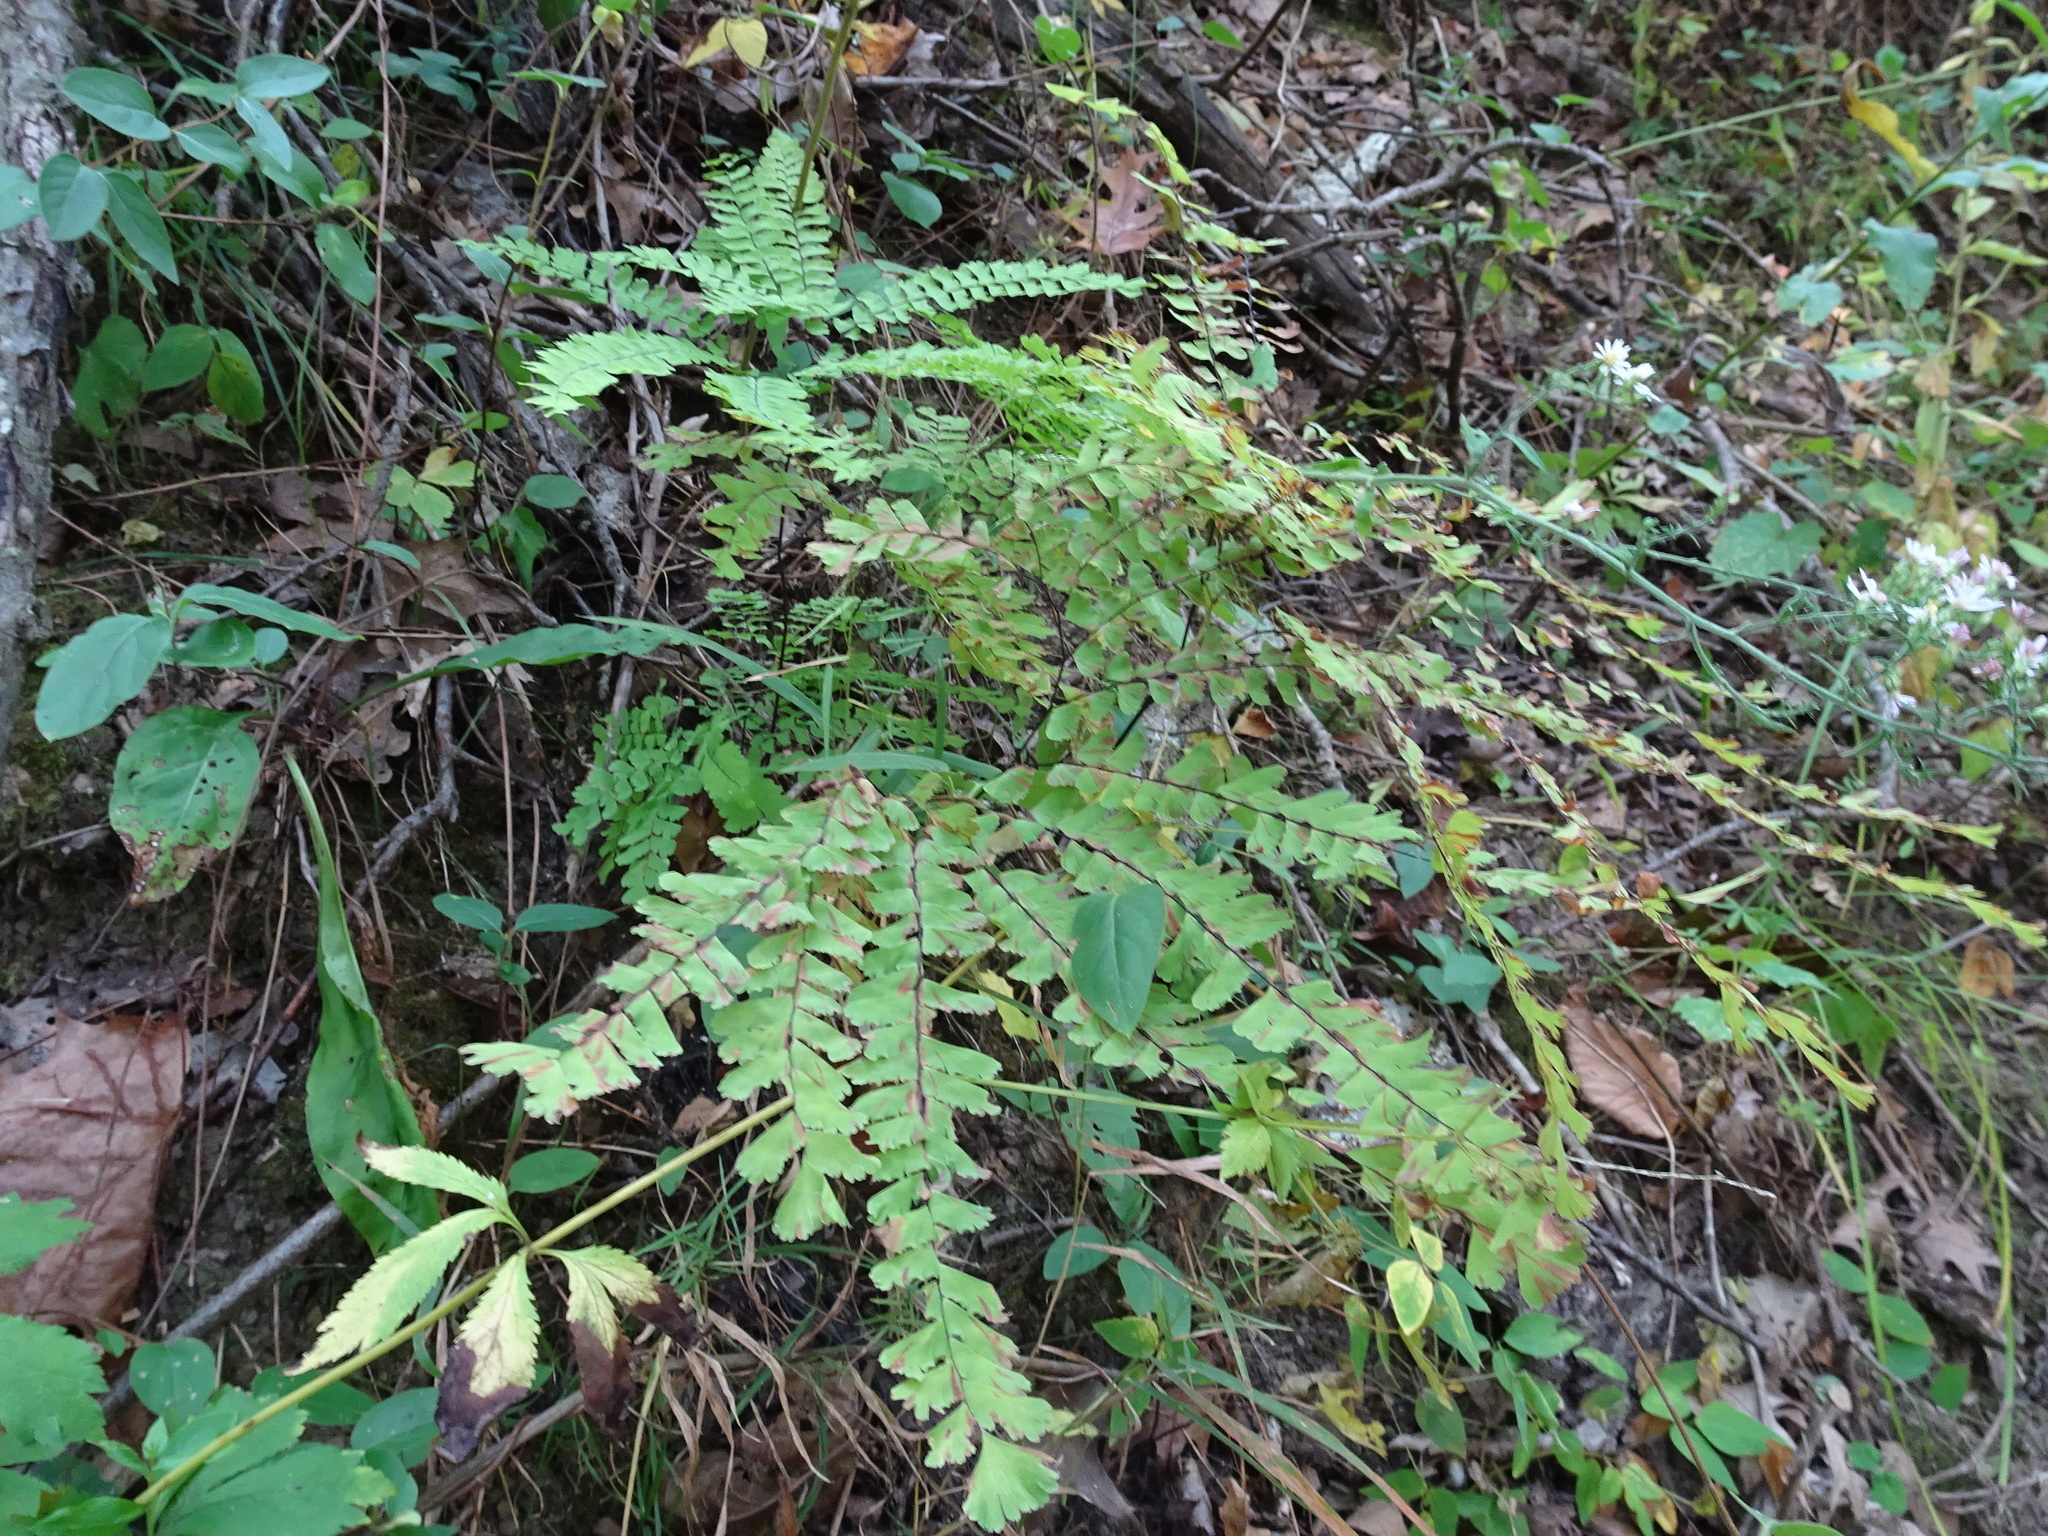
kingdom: Plantae
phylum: Tracheophyta
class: Polypodiopsida
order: Polypodiales
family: Pteridaceae
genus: Adiantum
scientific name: Adiantum pedatum
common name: Five-finger fern
